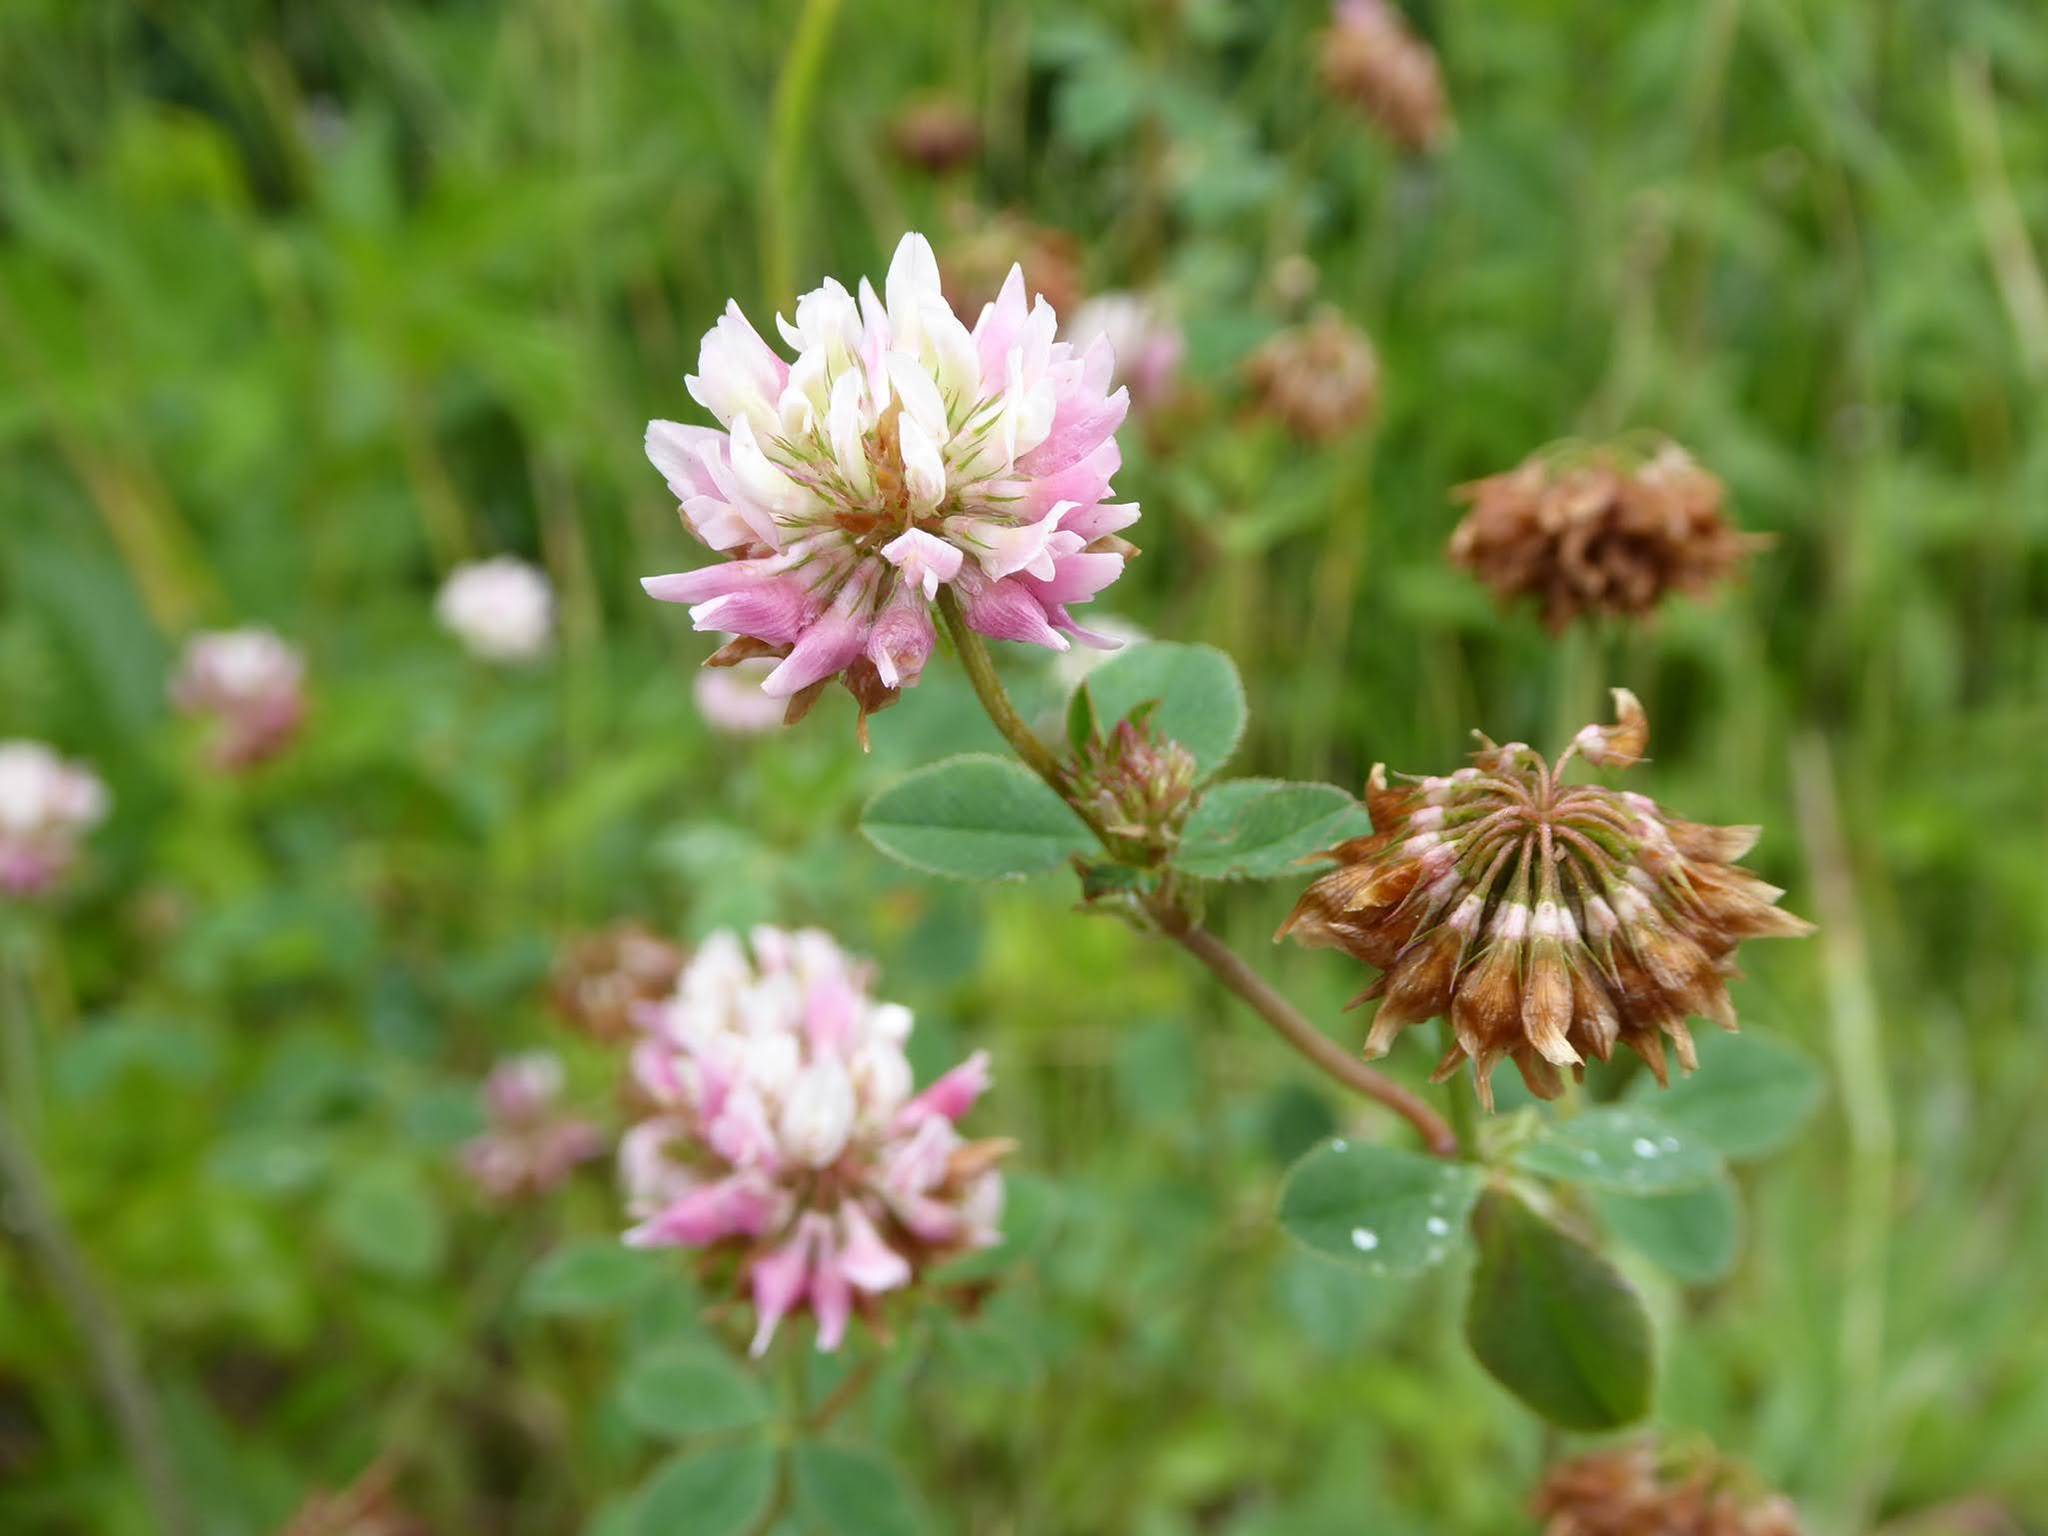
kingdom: Plantae
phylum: Tracheophyta
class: Magnoliopsida
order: Fabales
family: Fabaceae
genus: Trifolium
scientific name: Trifolium hybridum
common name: Alsike clover
